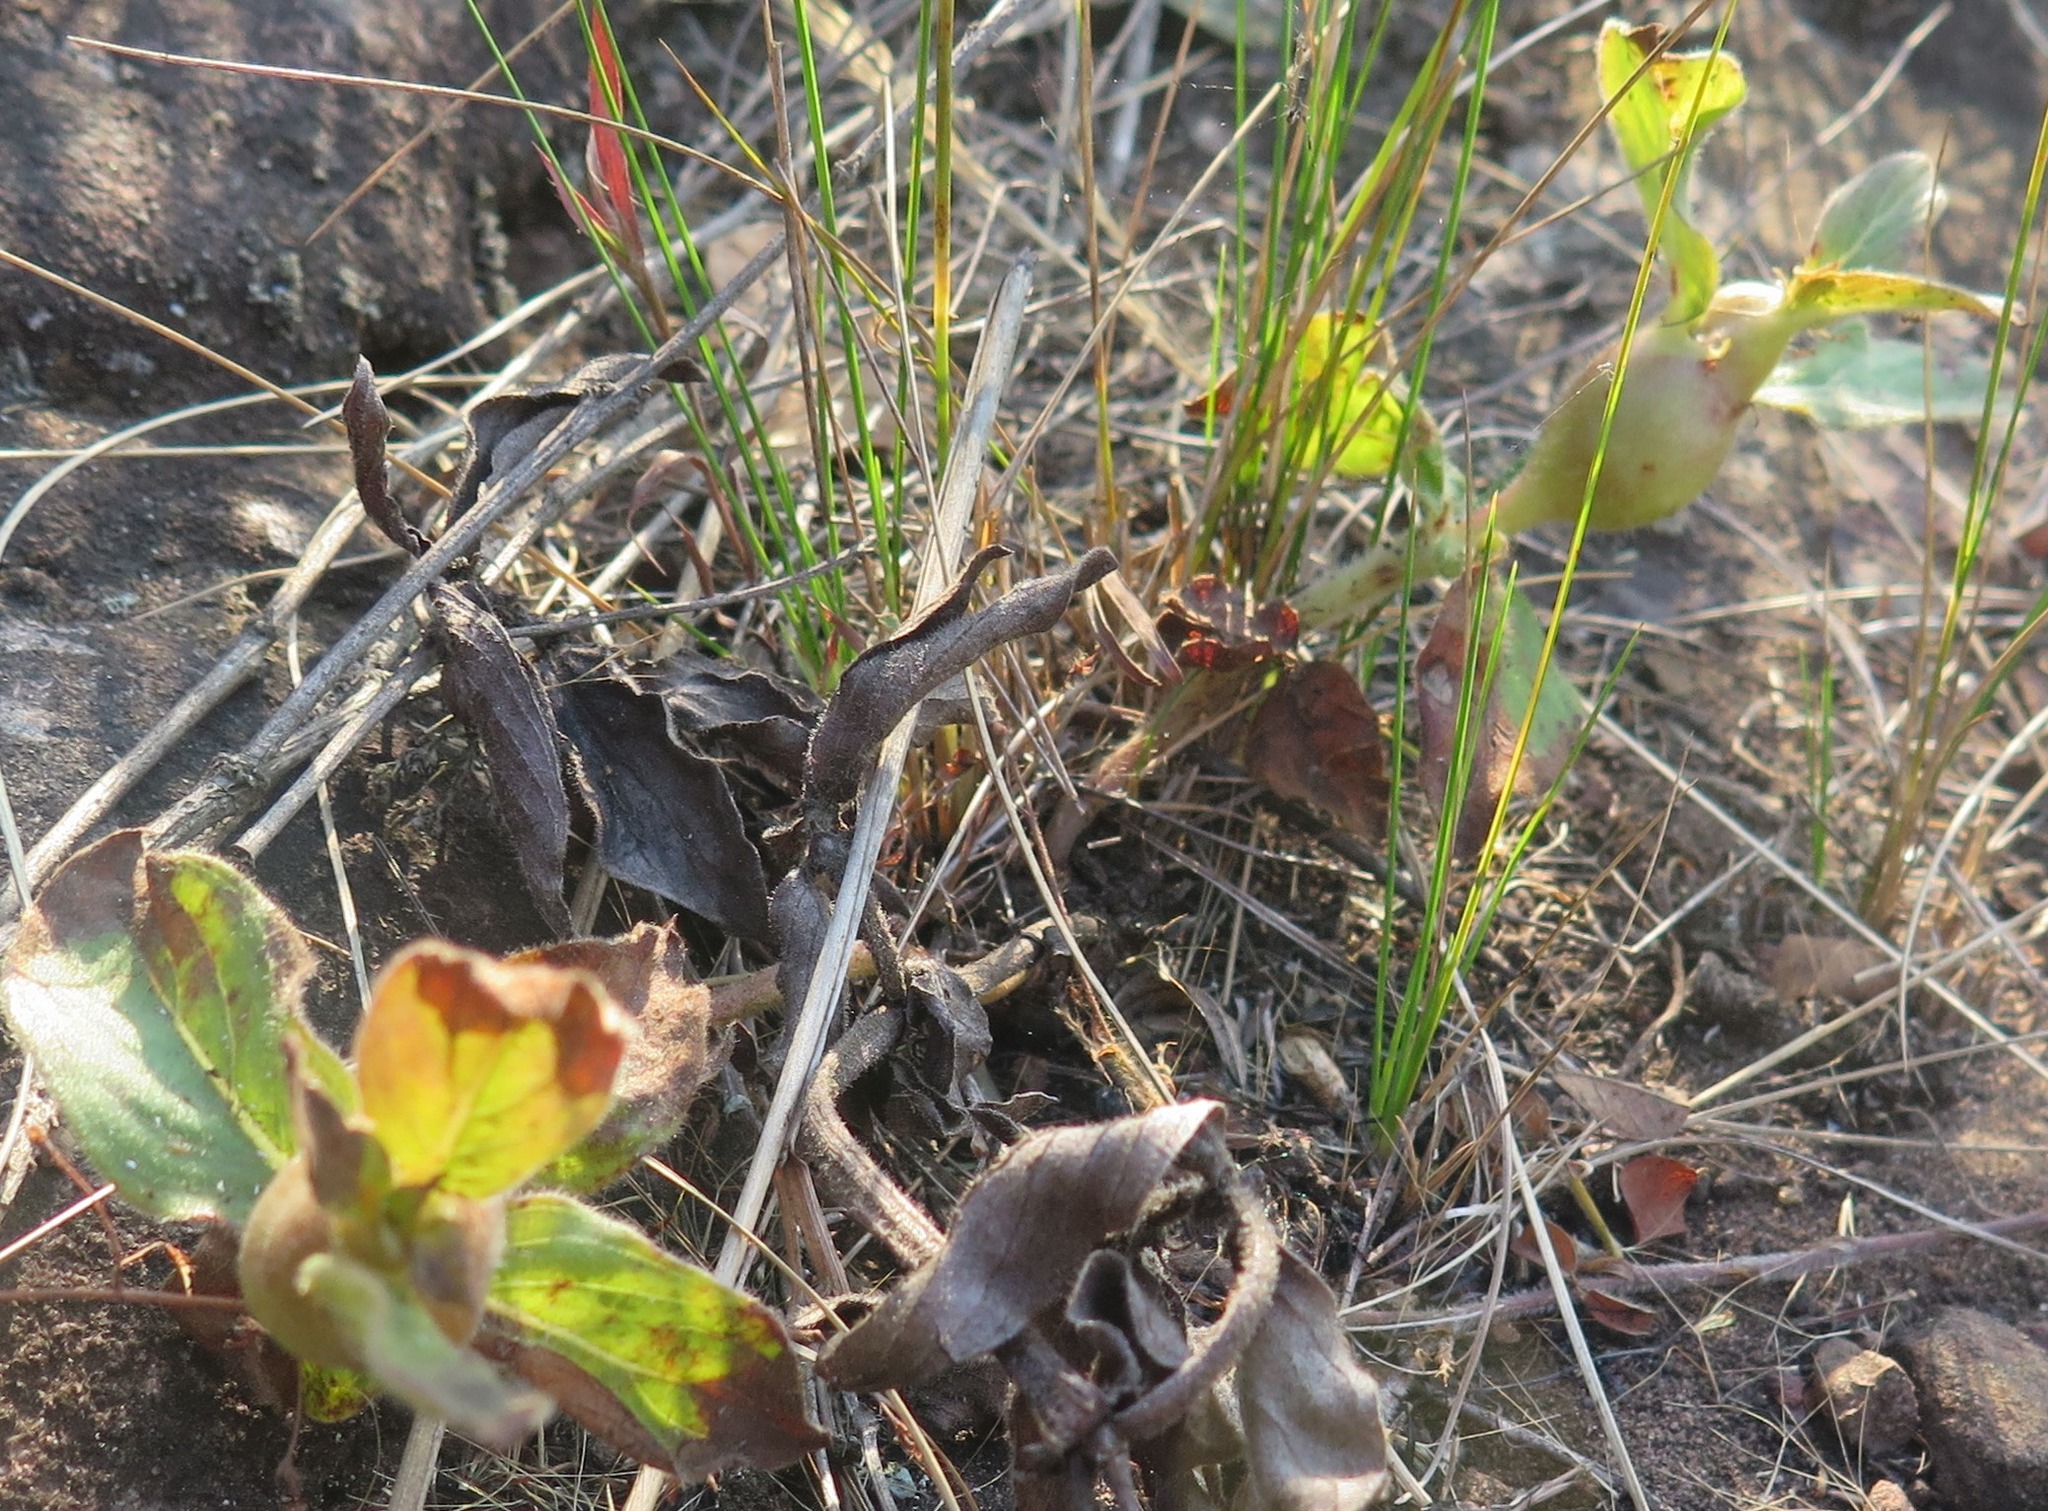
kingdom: Plantae
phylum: Tracheophyta
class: Magnoliopsida
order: Gentianales
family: Rubiaceae
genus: Pentanisia
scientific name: Pentanisia prunelloides
